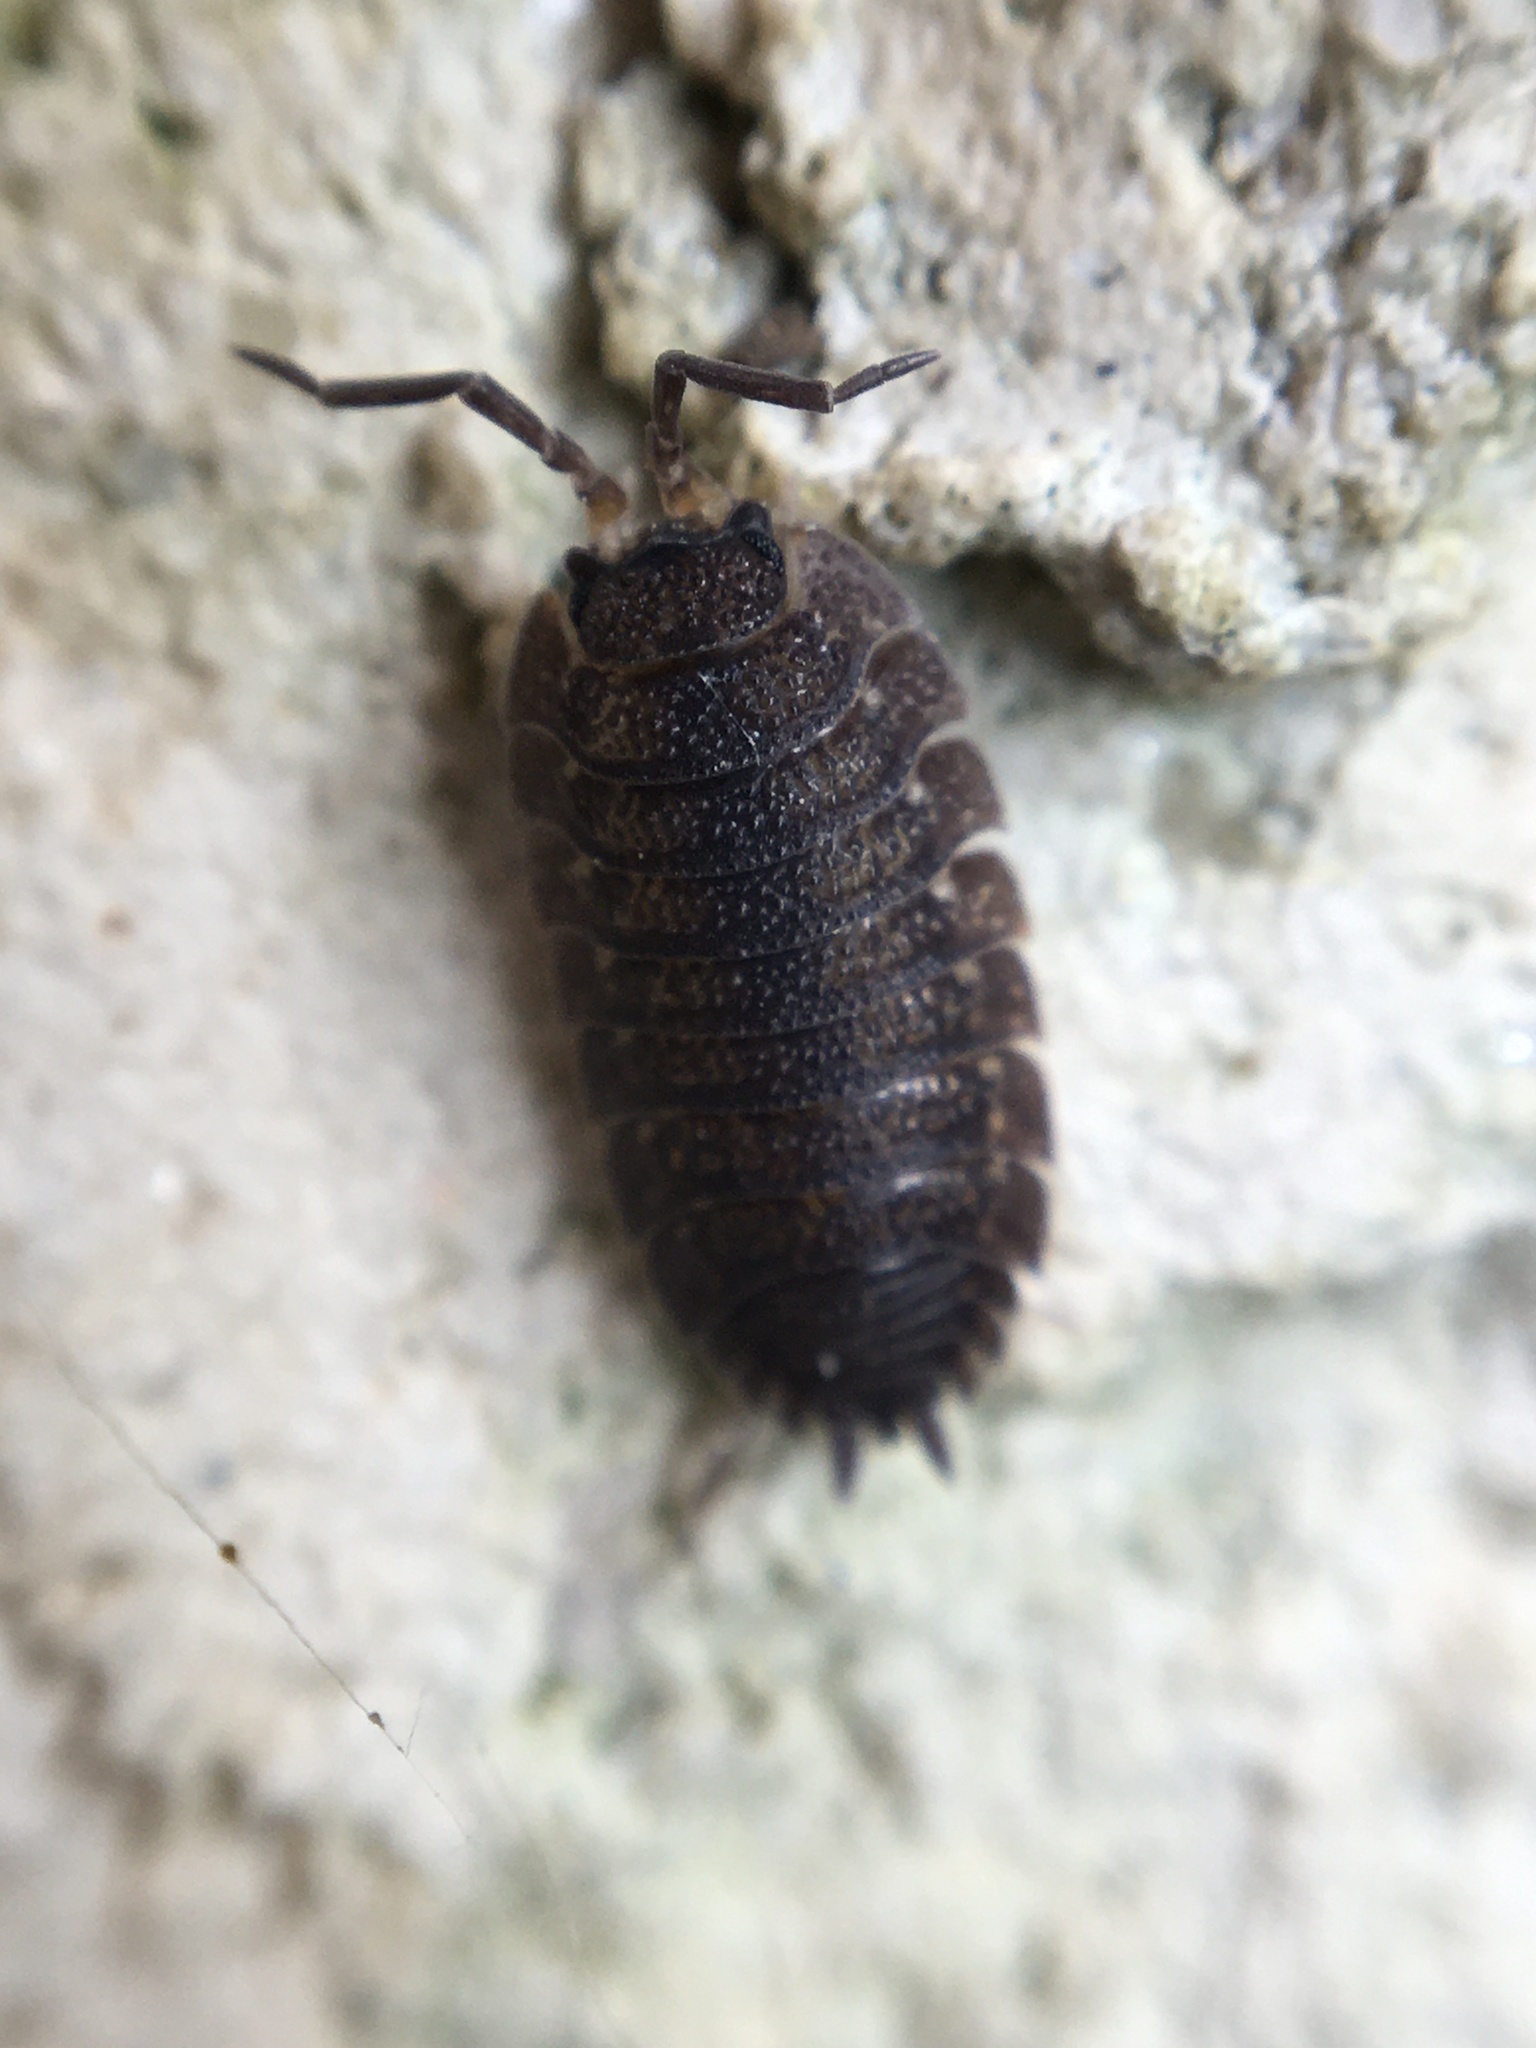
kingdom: Animalia
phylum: Arthropoda
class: Malacostraca
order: Isopoda
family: Porcellionidae
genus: Porcellio
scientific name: Porcellio scaber
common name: Common rough woodlouse
